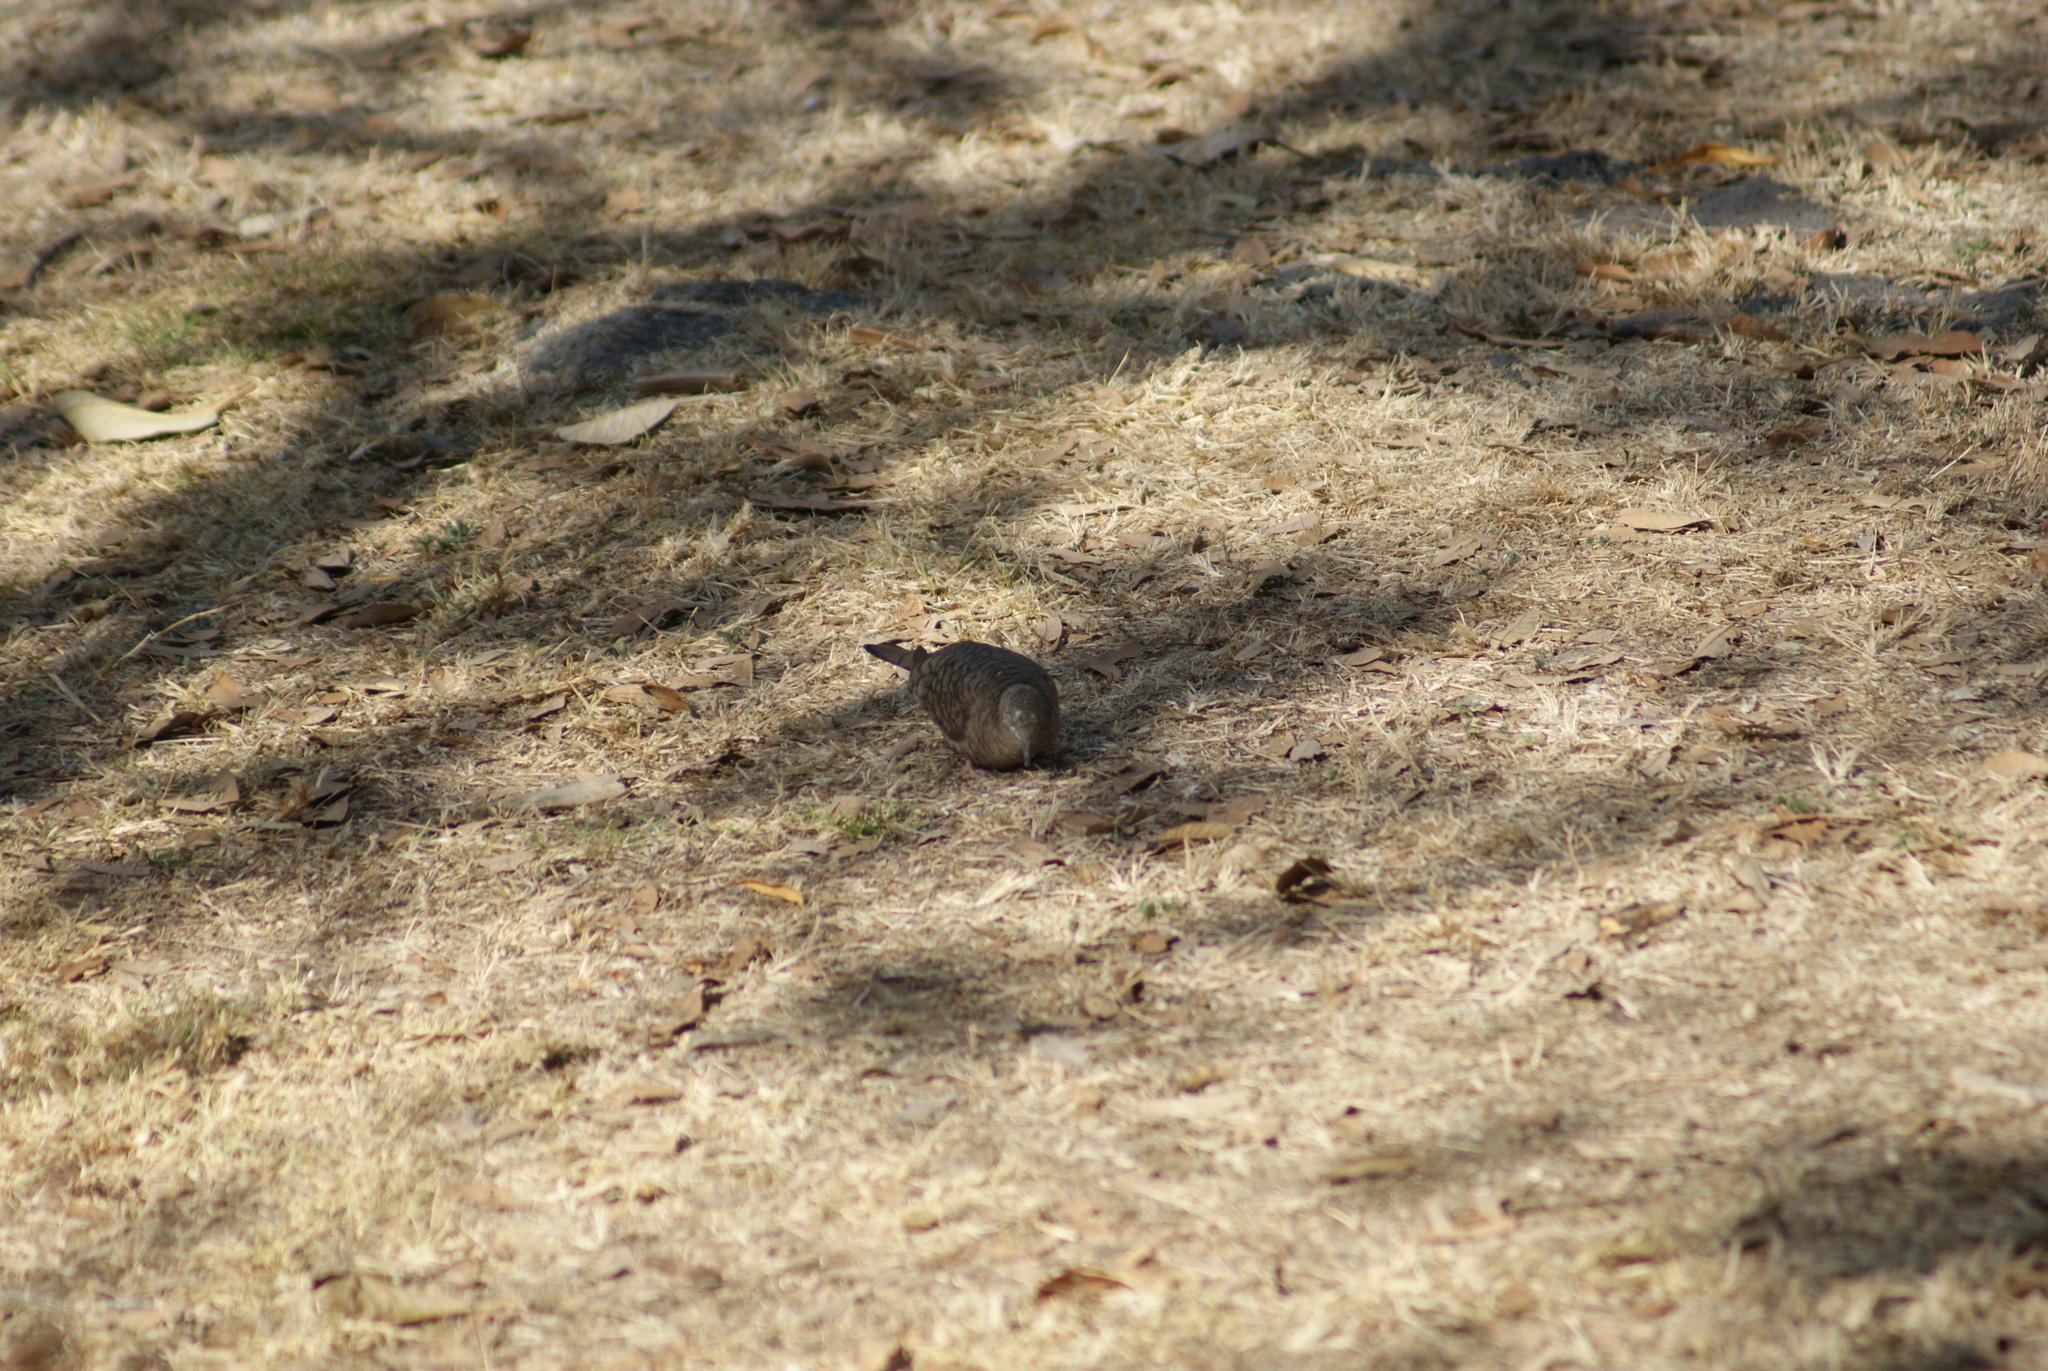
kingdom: Animalia
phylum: Chordata
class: Aves
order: Columbiformes
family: Columbidae
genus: Columbina
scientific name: Columbina inca
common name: Inca dove
